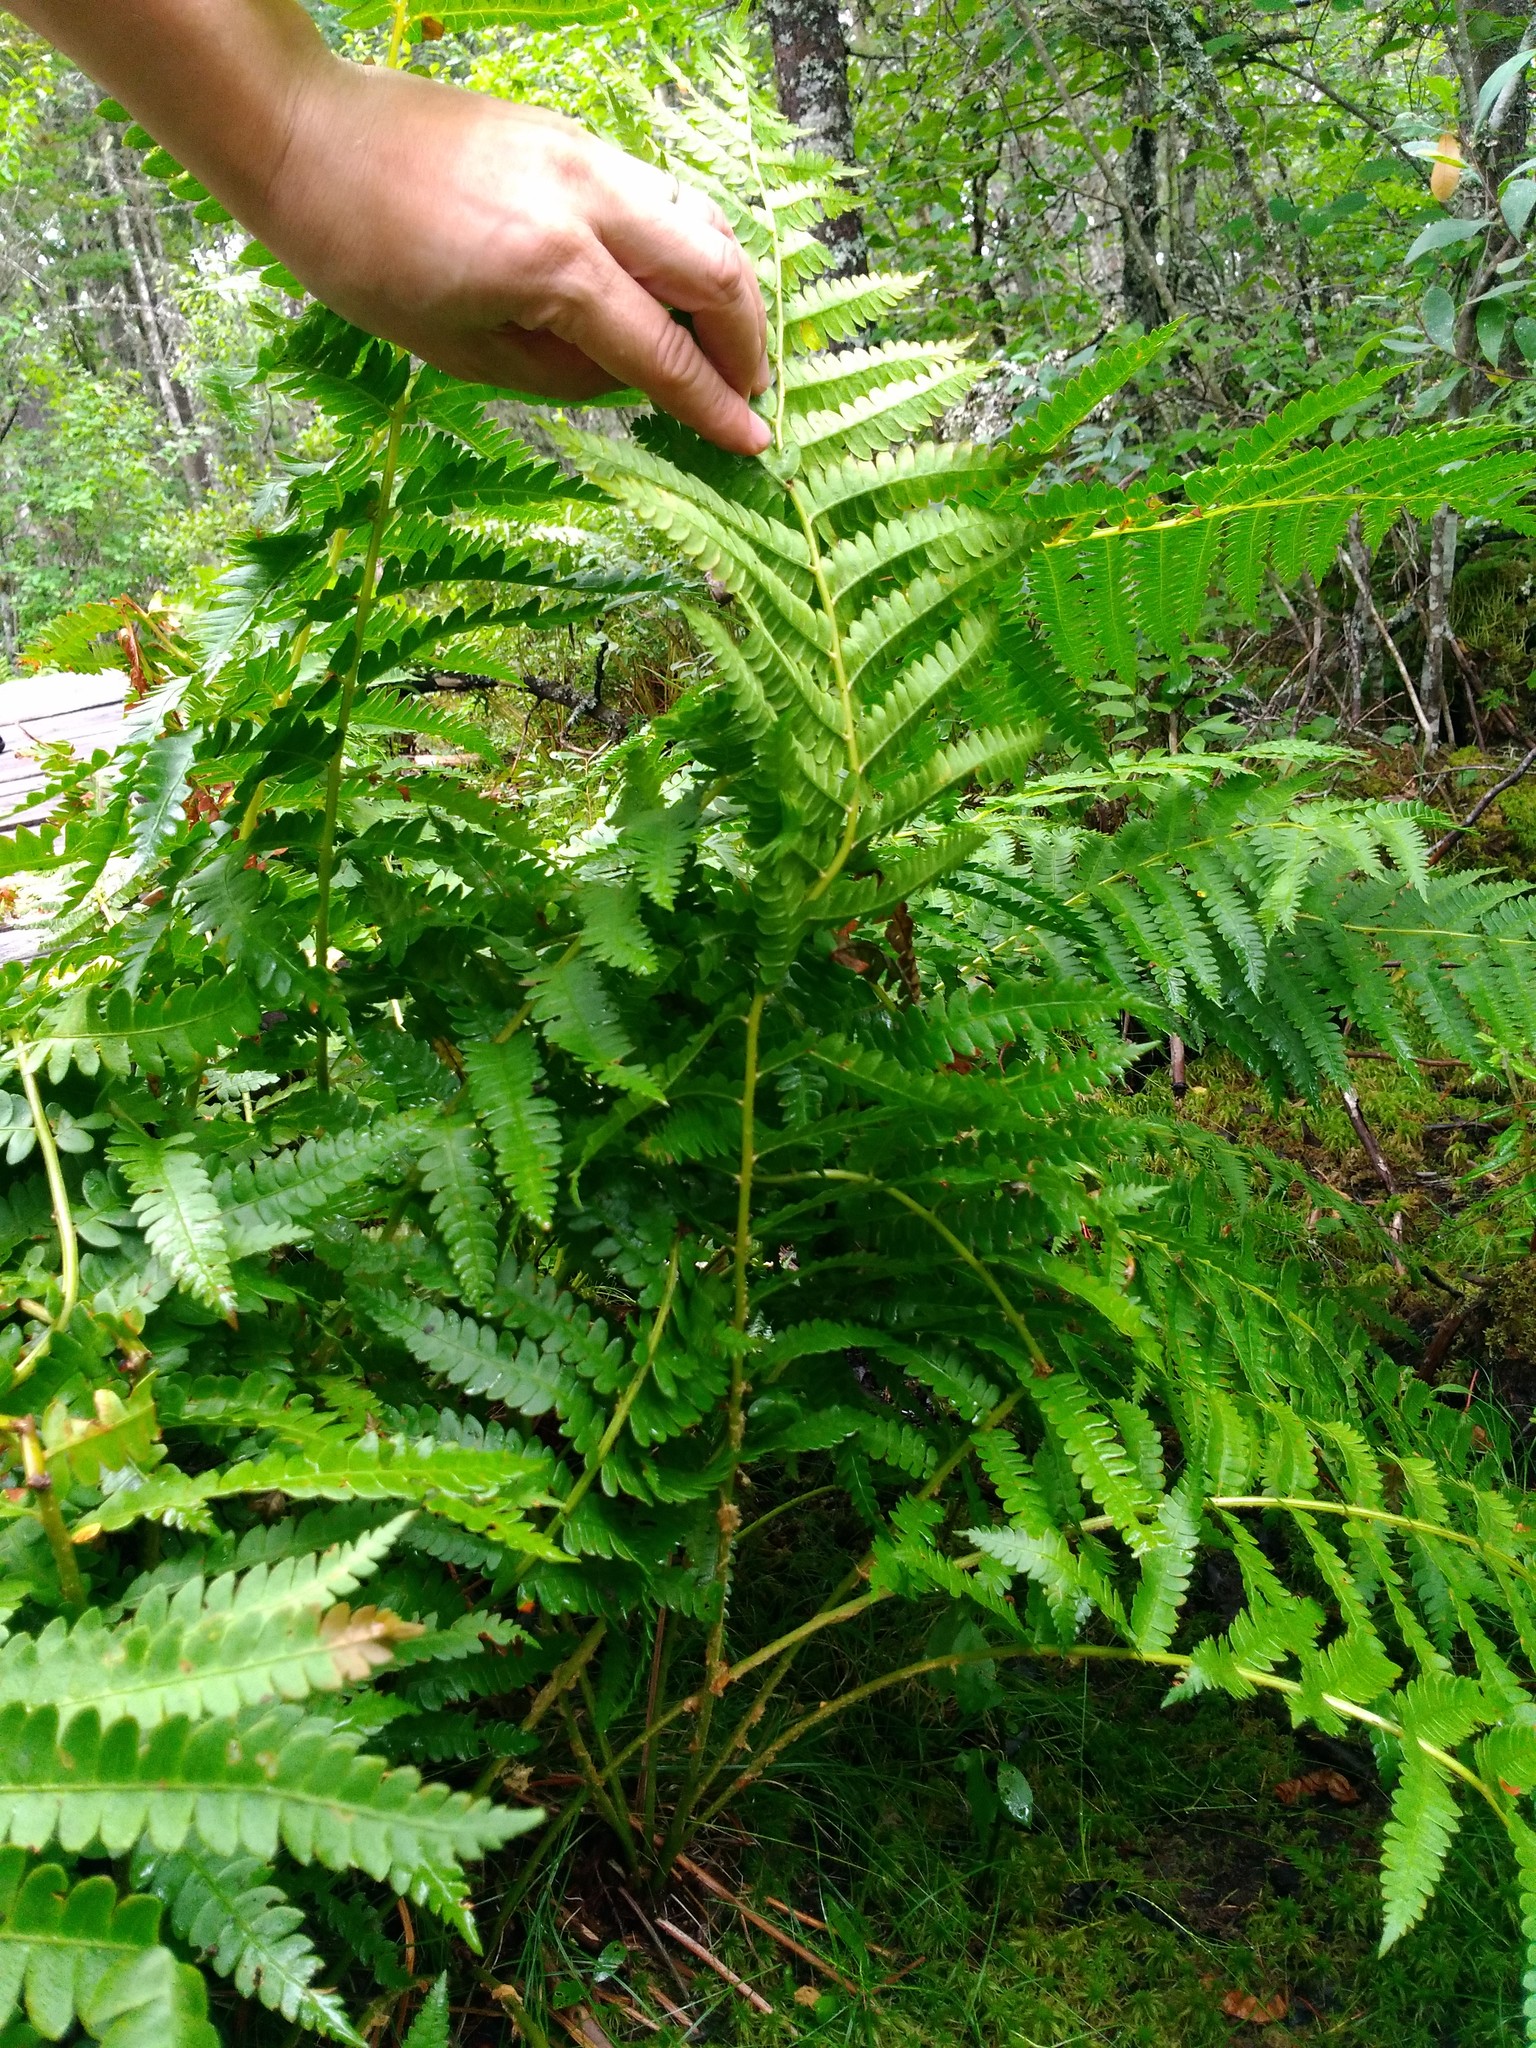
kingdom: Plantae
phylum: Tracheophyta
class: Polypodiopsida
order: Osmundales
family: Osmundaceae
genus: Osmundastrum
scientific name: Osmundastrum cinnamomeum
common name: Cinnamon fern
